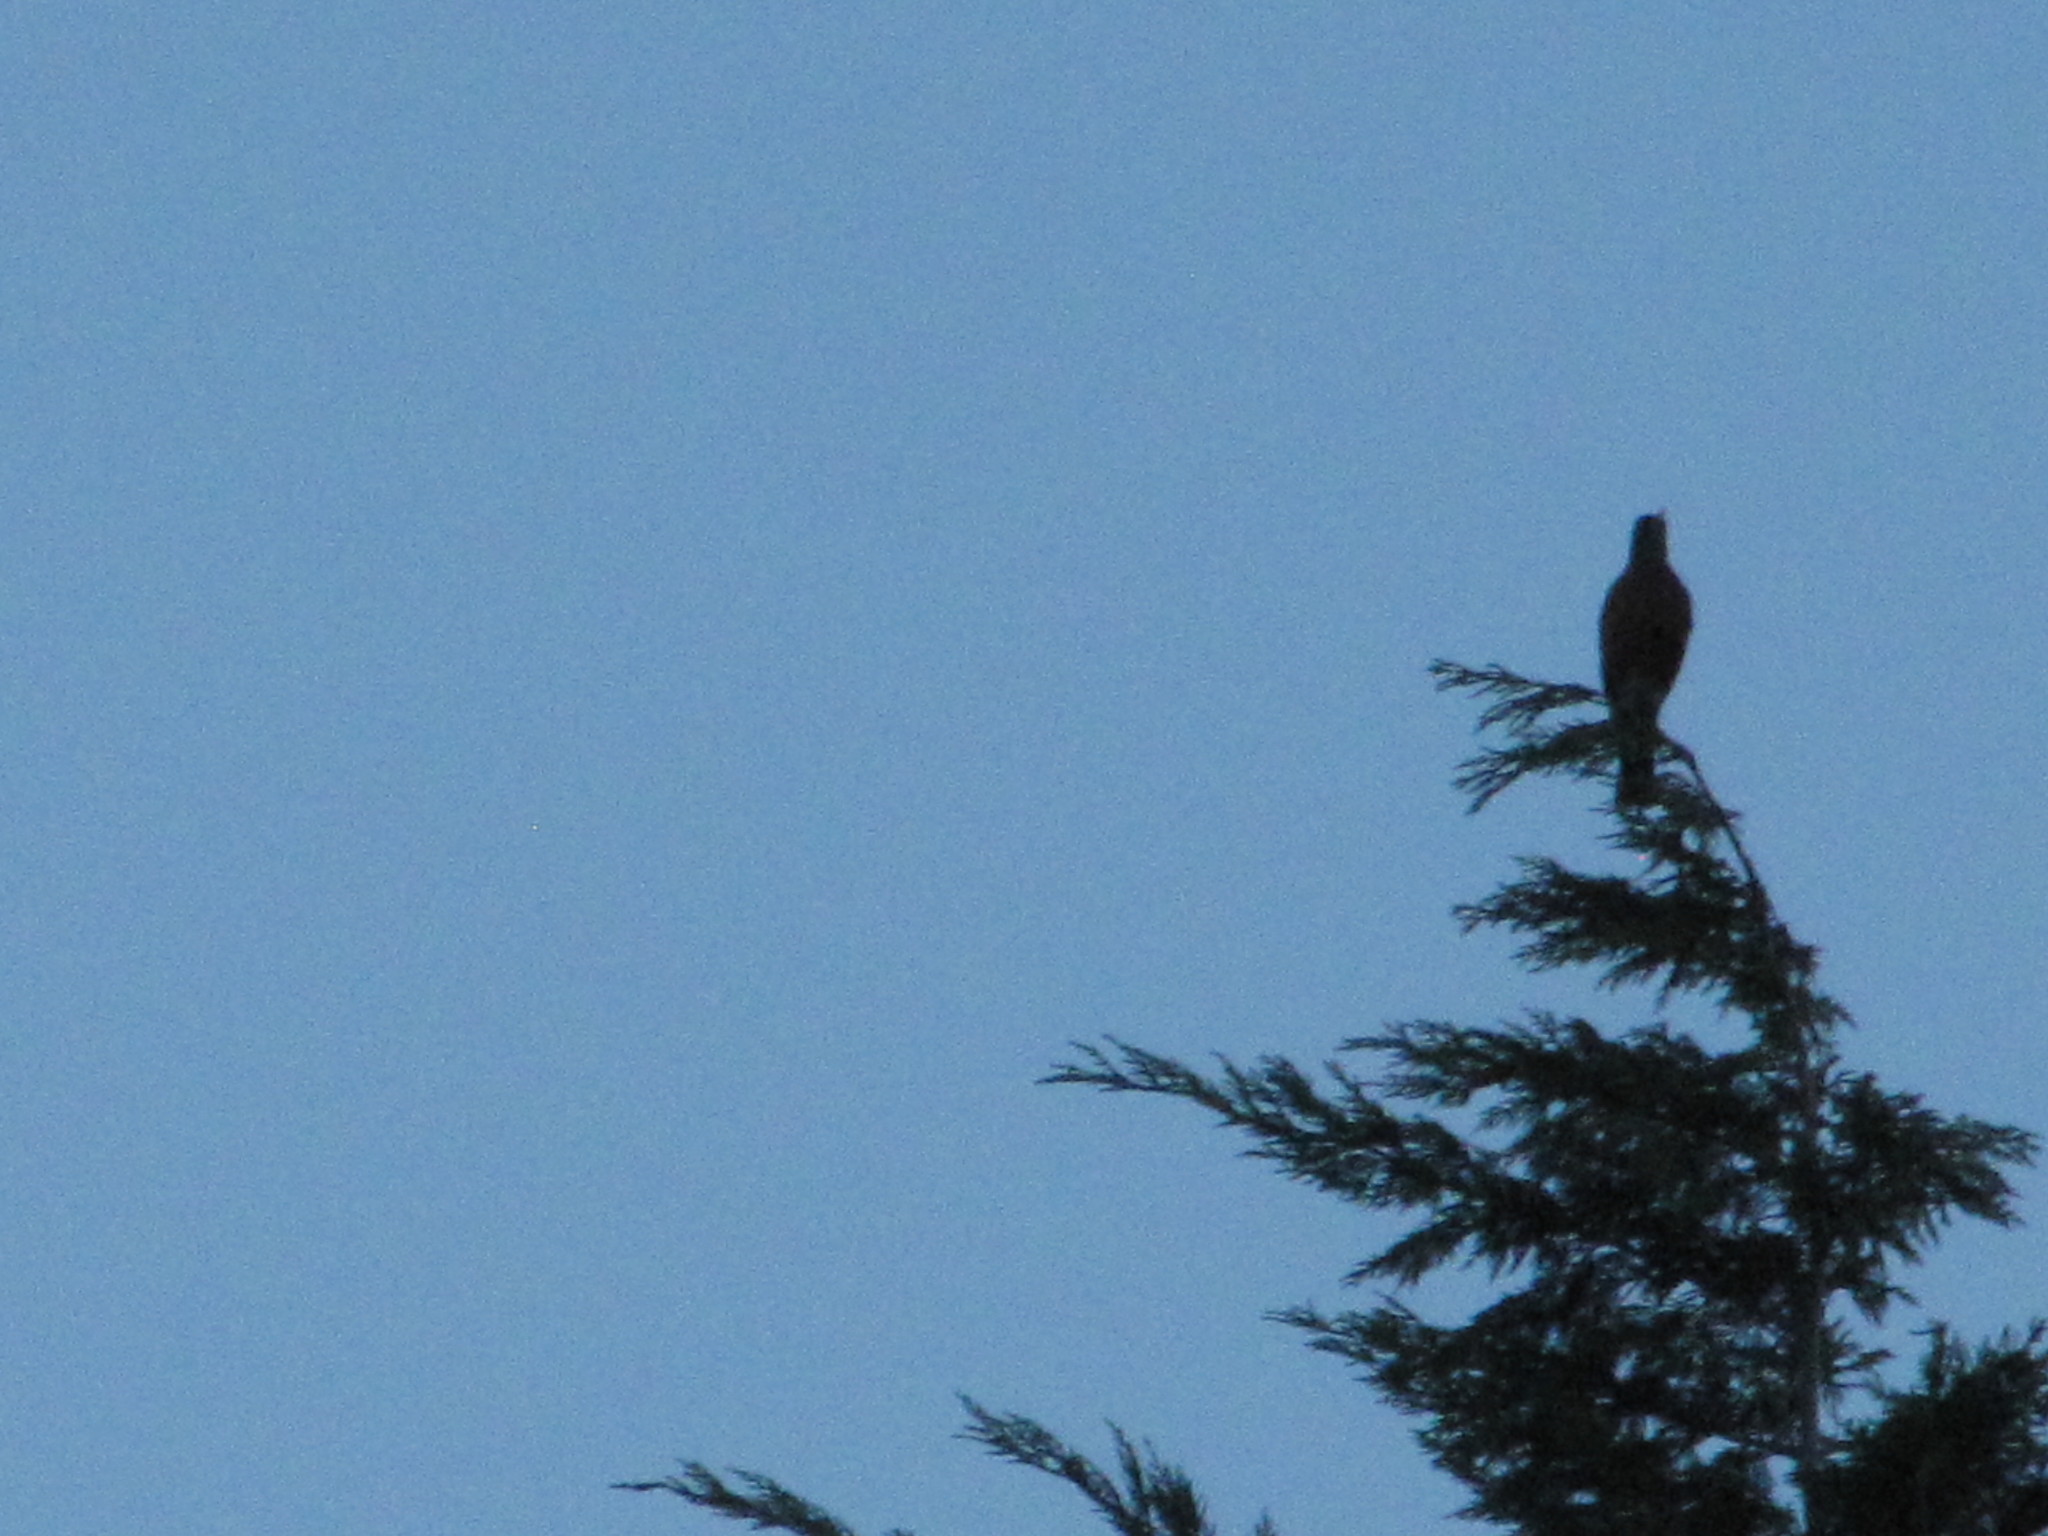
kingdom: Animalia
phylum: Chordata
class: Aves
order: Passeriformes
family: Turdidae
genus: Turdus
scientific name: Turdus migratorius
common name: American robin
